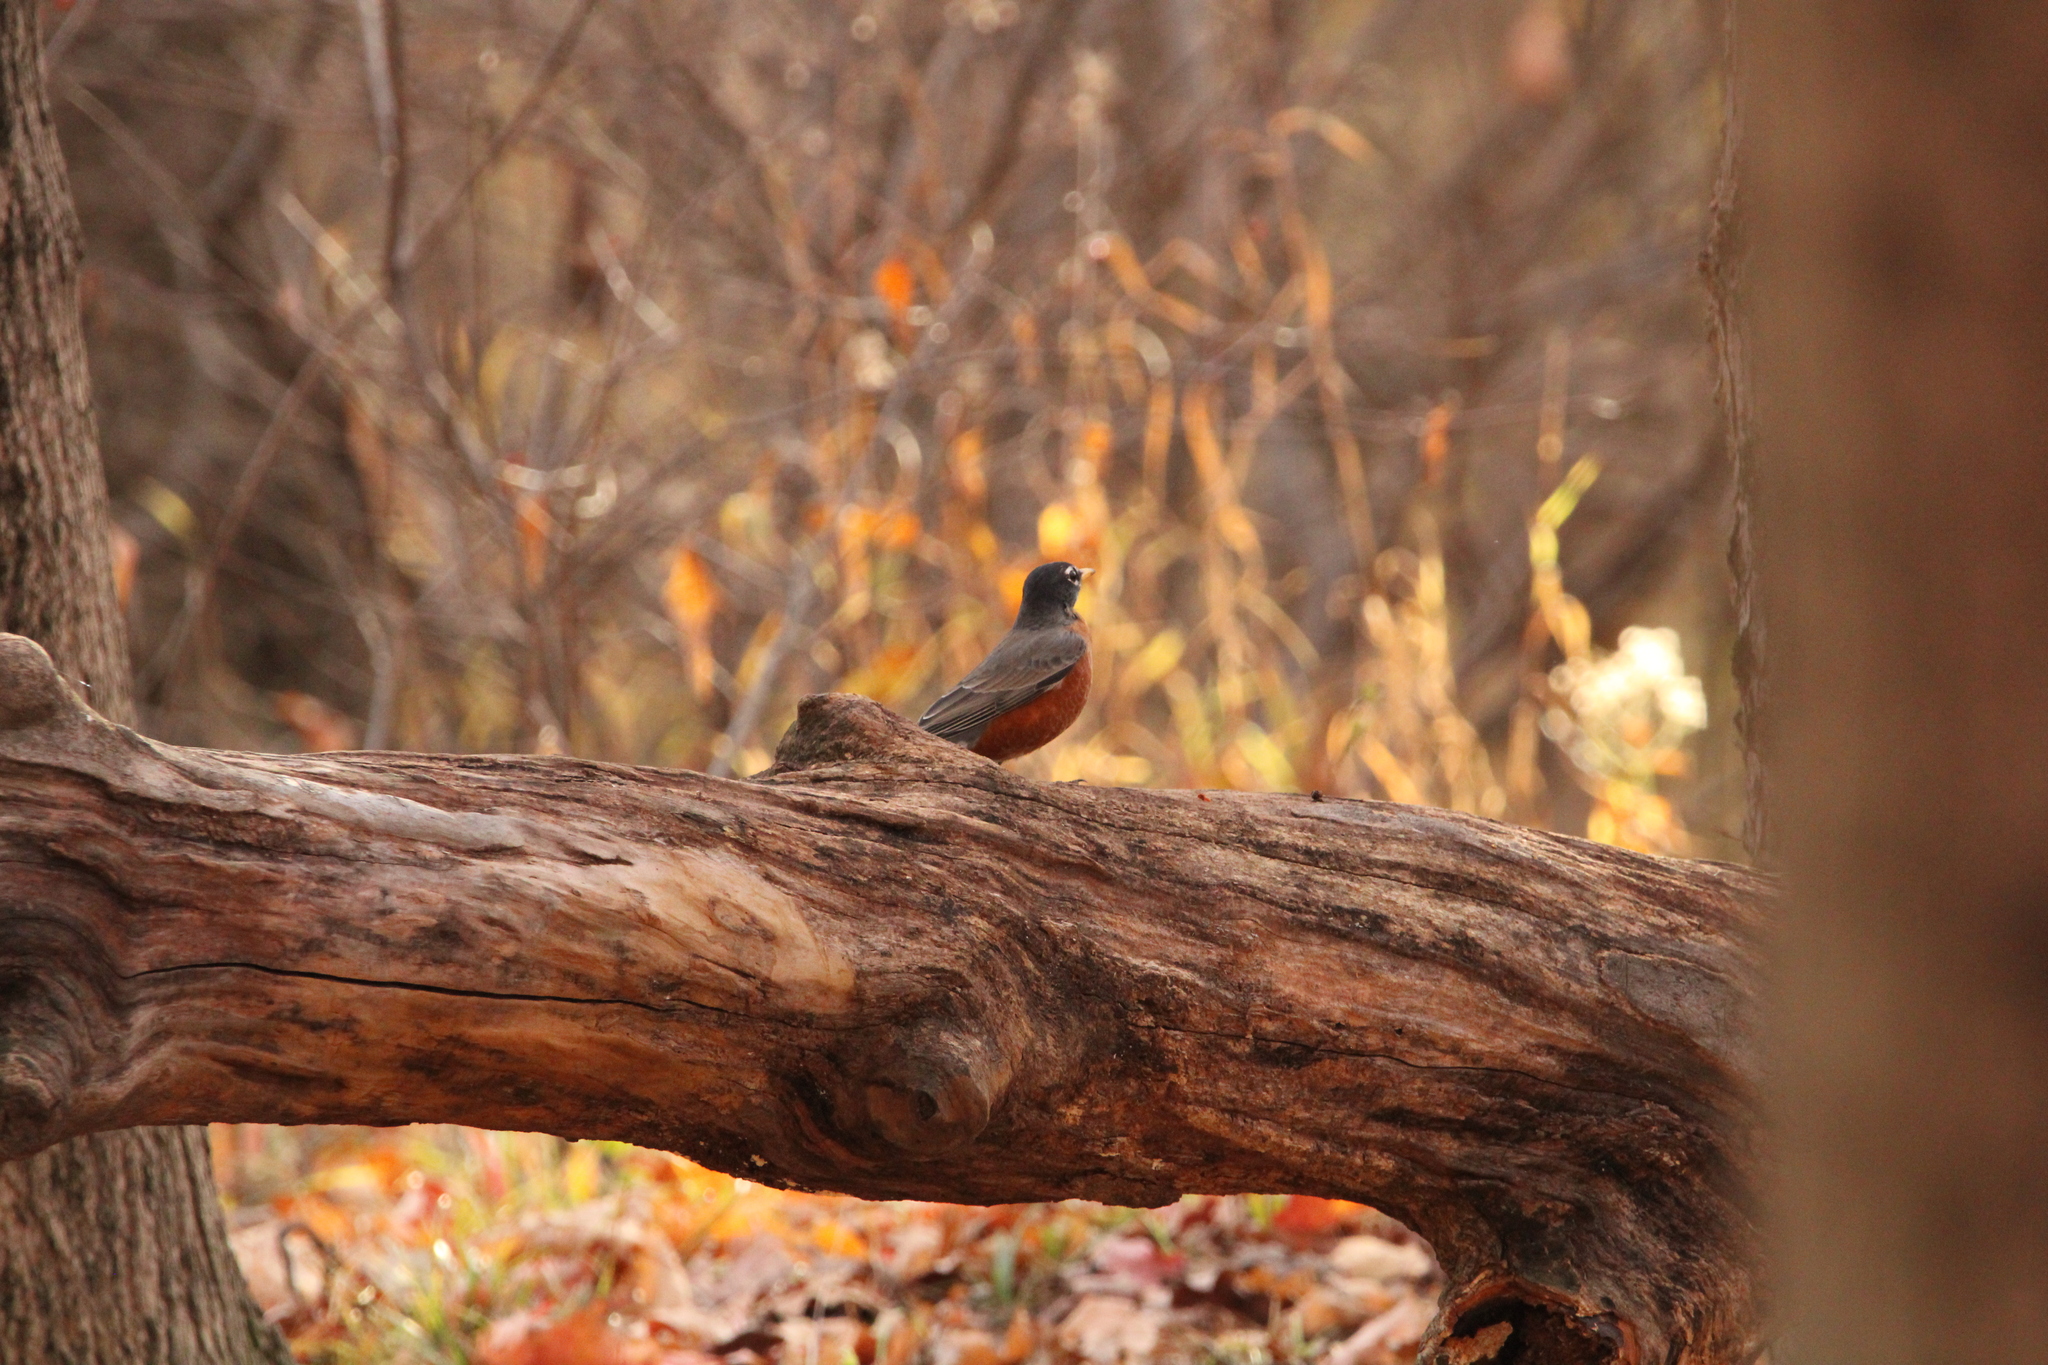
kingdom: Animalia
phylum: Chordata
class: Aves
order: Passeriformes
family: Turdidae
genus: Turdus
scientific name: Turdus migratorius
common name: American robin
